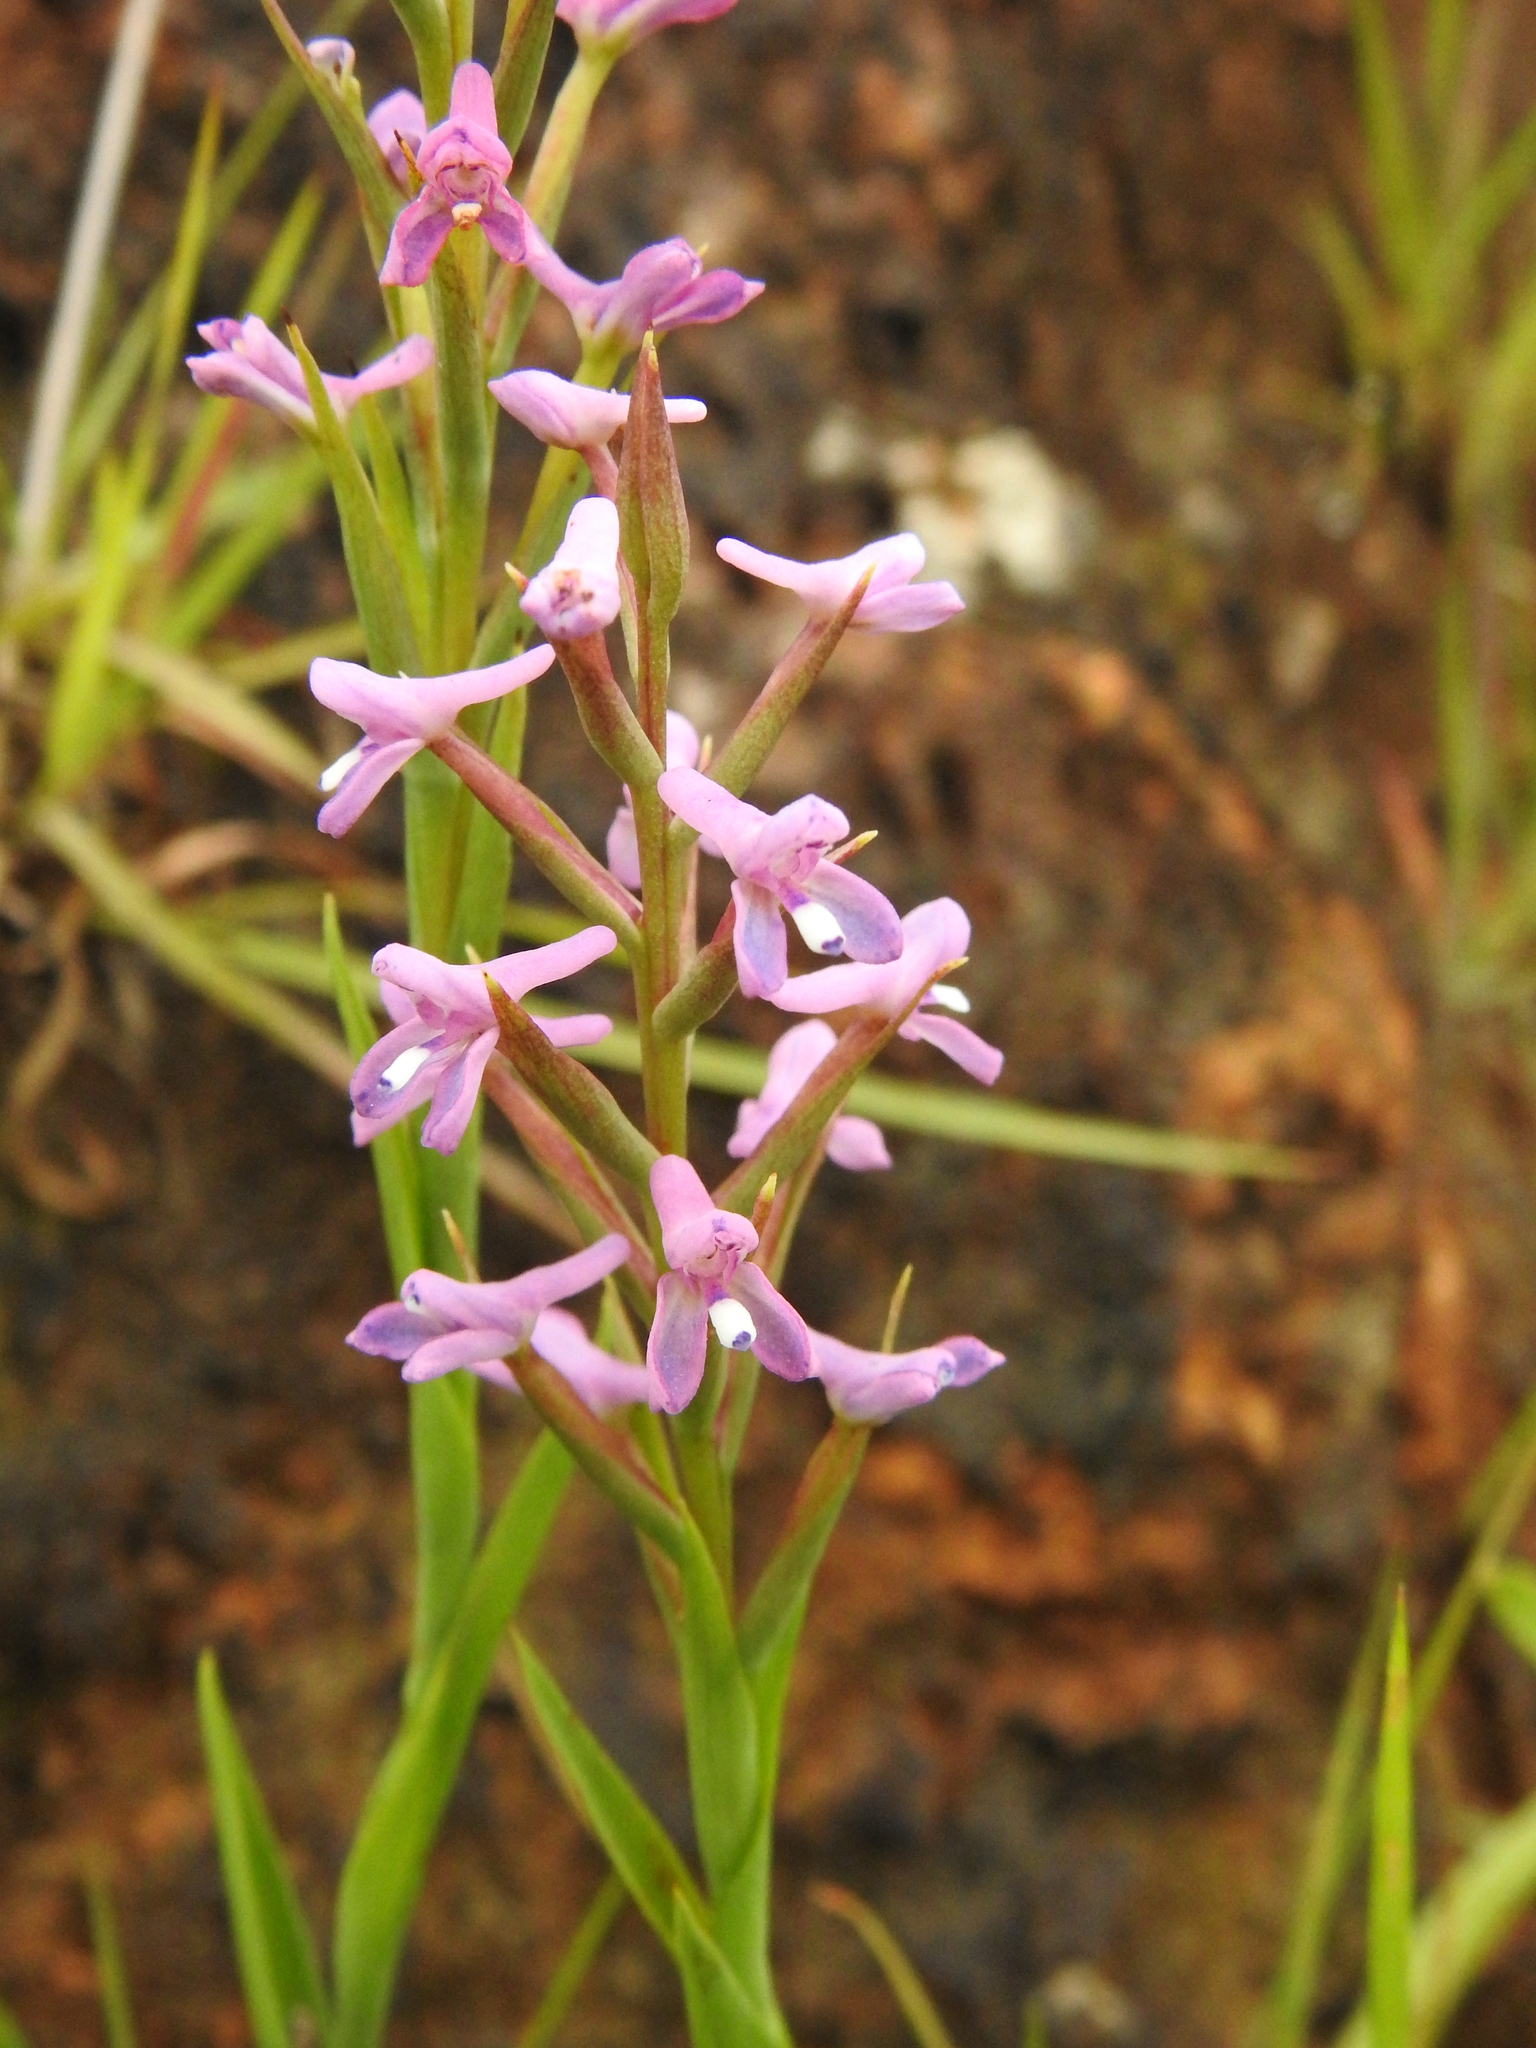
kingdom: Plantae
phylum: Tracheophyta
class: Liliopsida
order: Asparagales
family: Orchidaceae
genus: Disa
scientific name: Disa stachyoides
